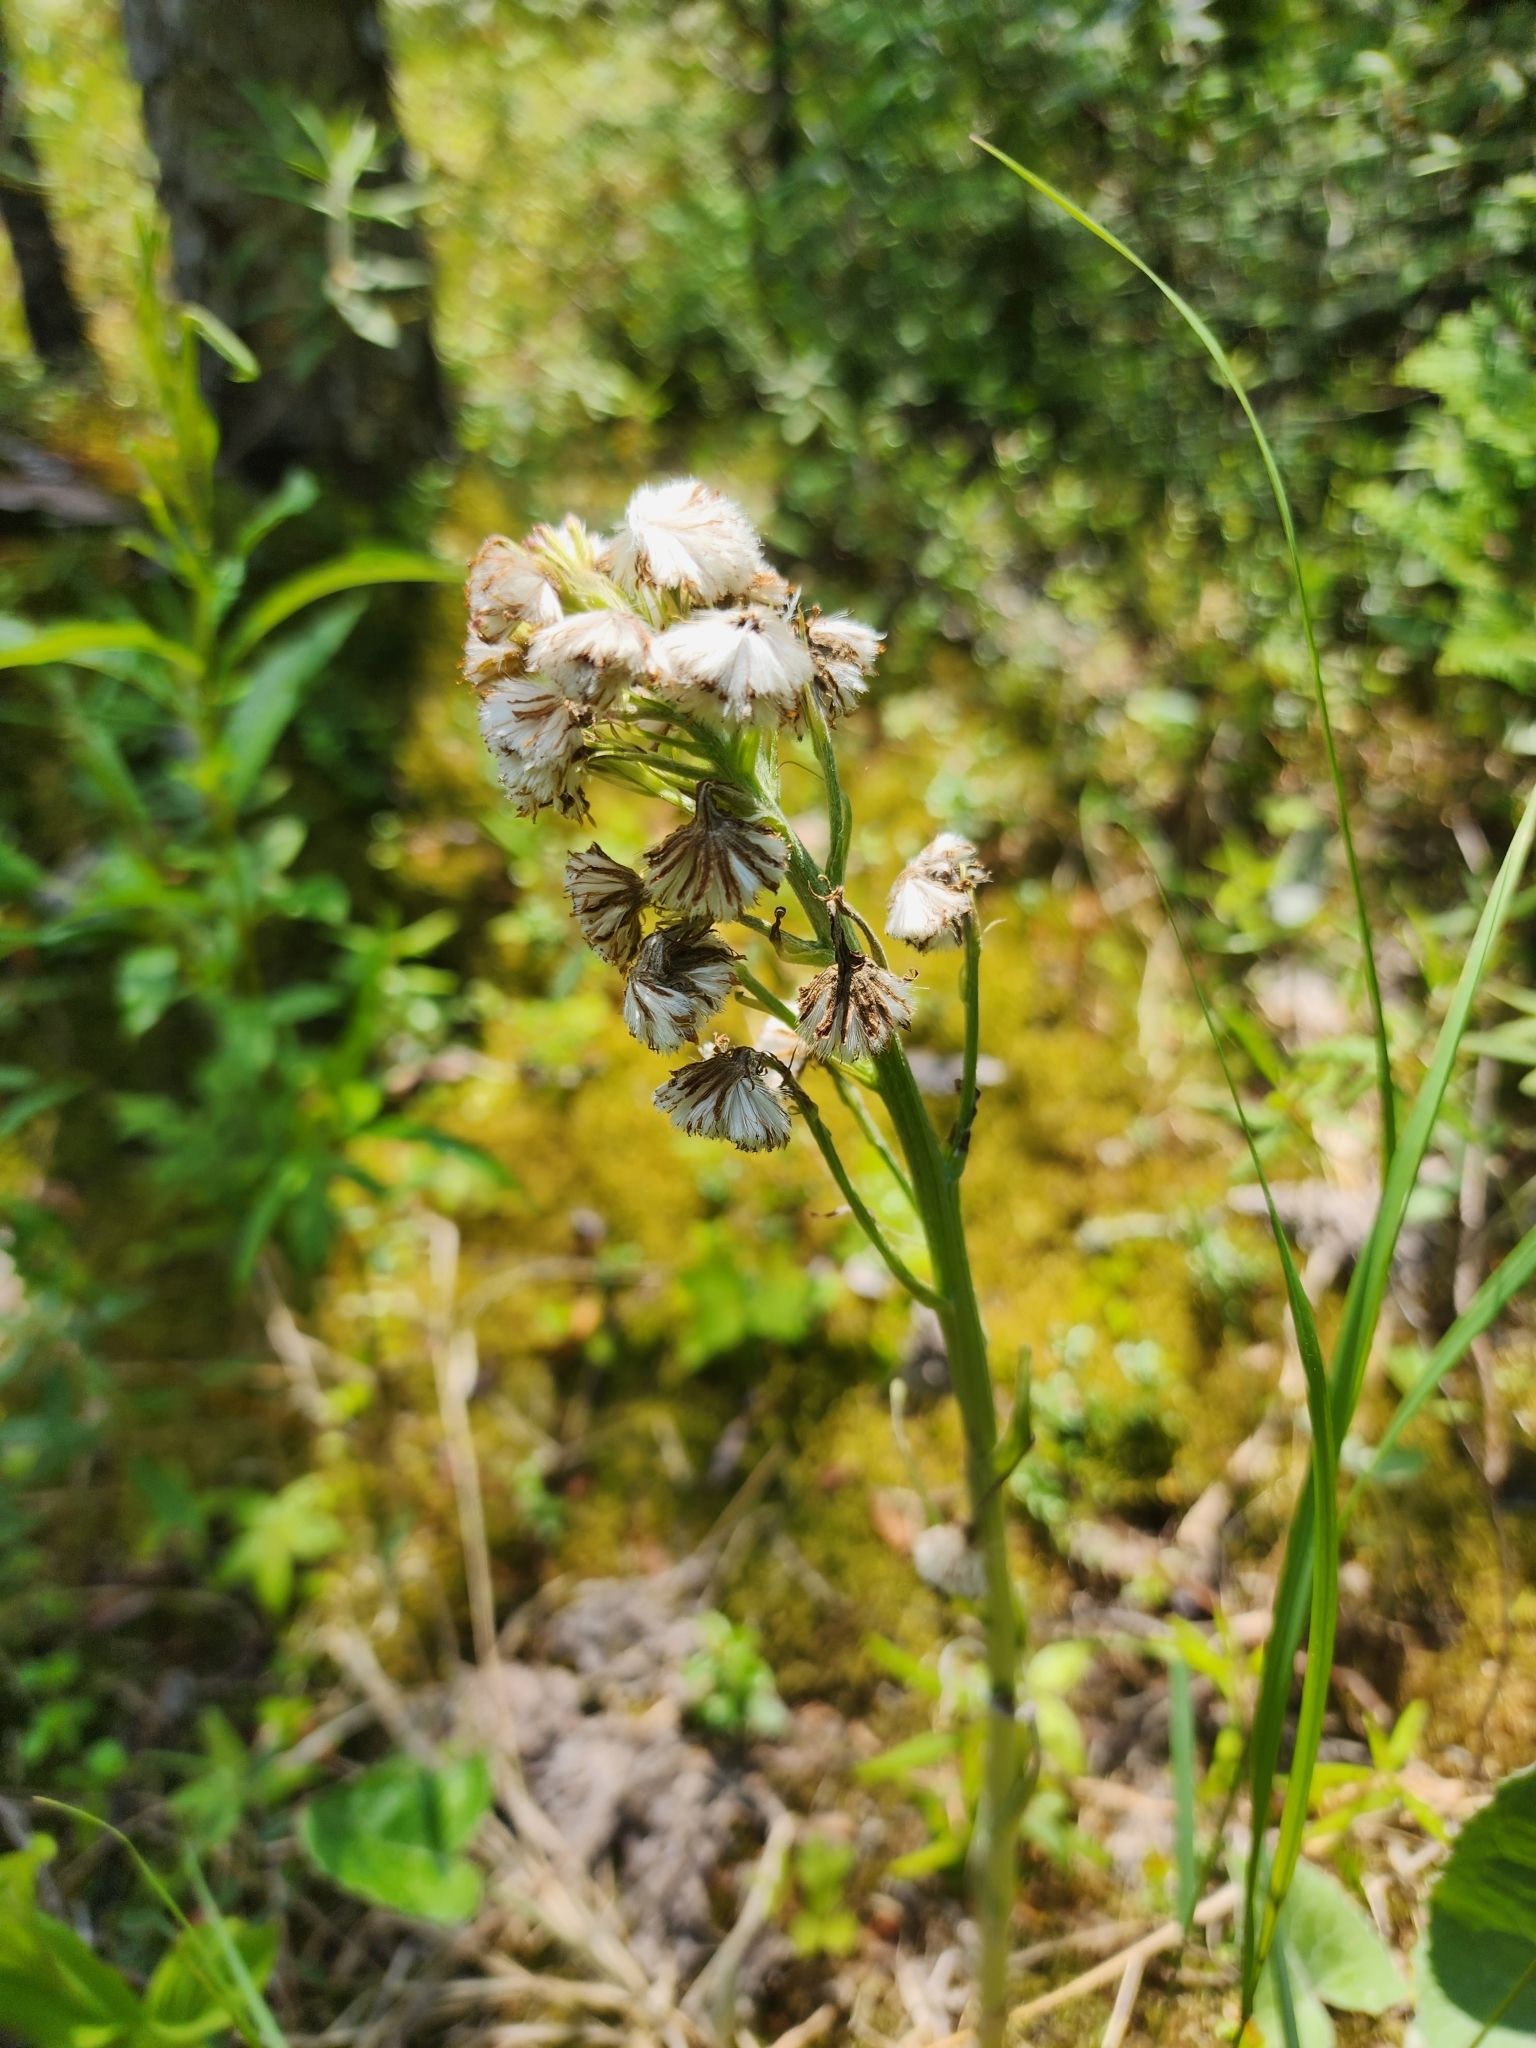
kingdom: Plantae
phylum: Tracheophyta
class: Magnoliopsida
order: Asterales
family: Asteraceae
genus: Petasites
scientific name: Petasites frigidus
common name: Arctic butterbur
